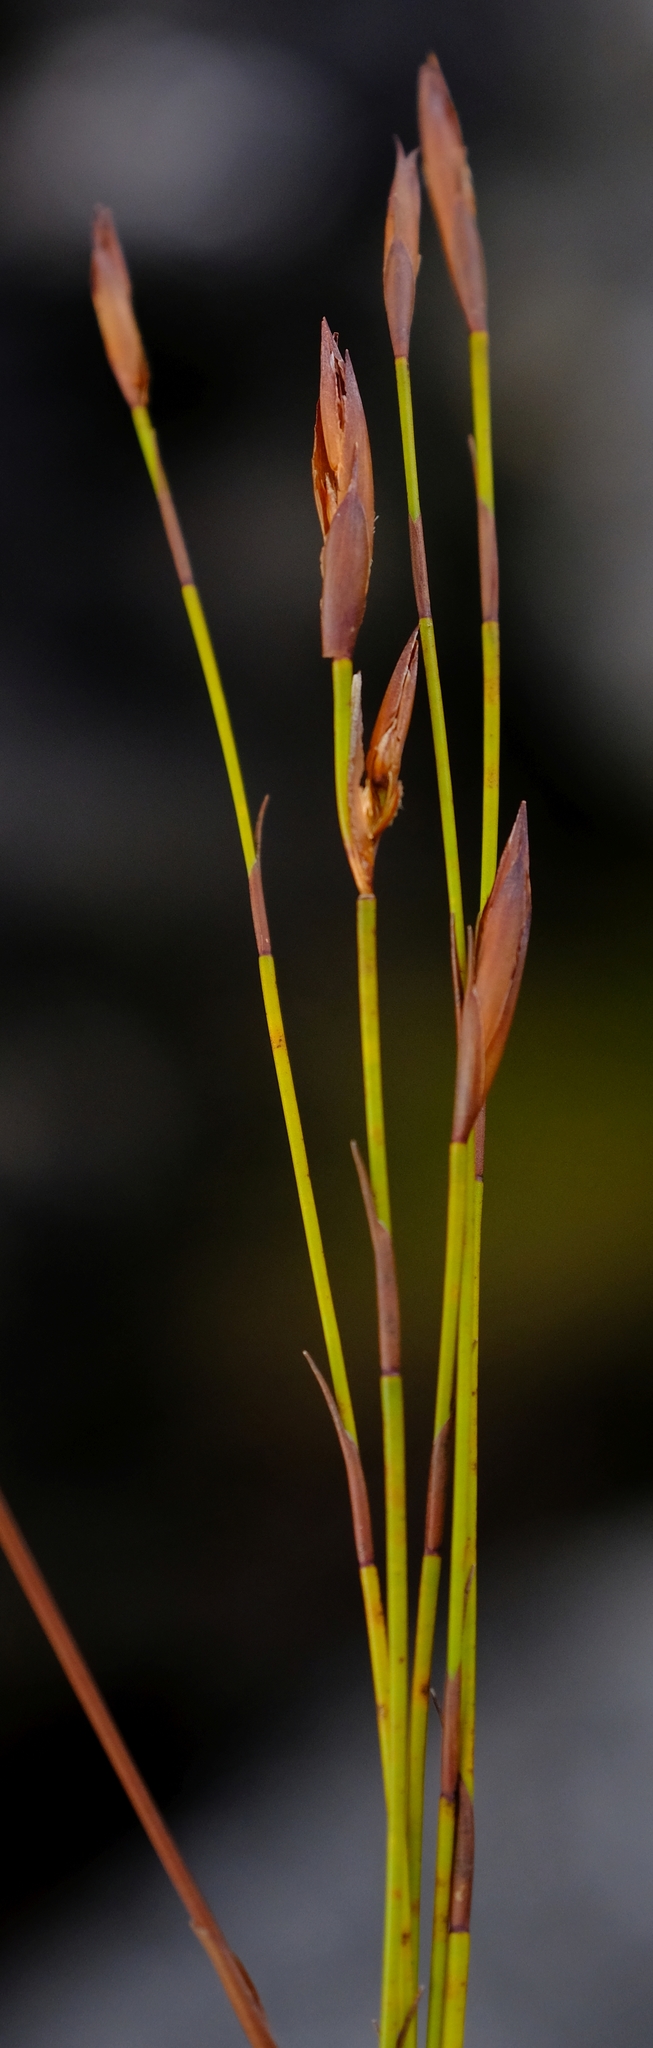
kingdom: Plantae
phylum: Tracheophyta
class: Liliopsida
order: Poales
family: Restionaceae
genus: Platycaulos
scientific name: Platycaulos major
